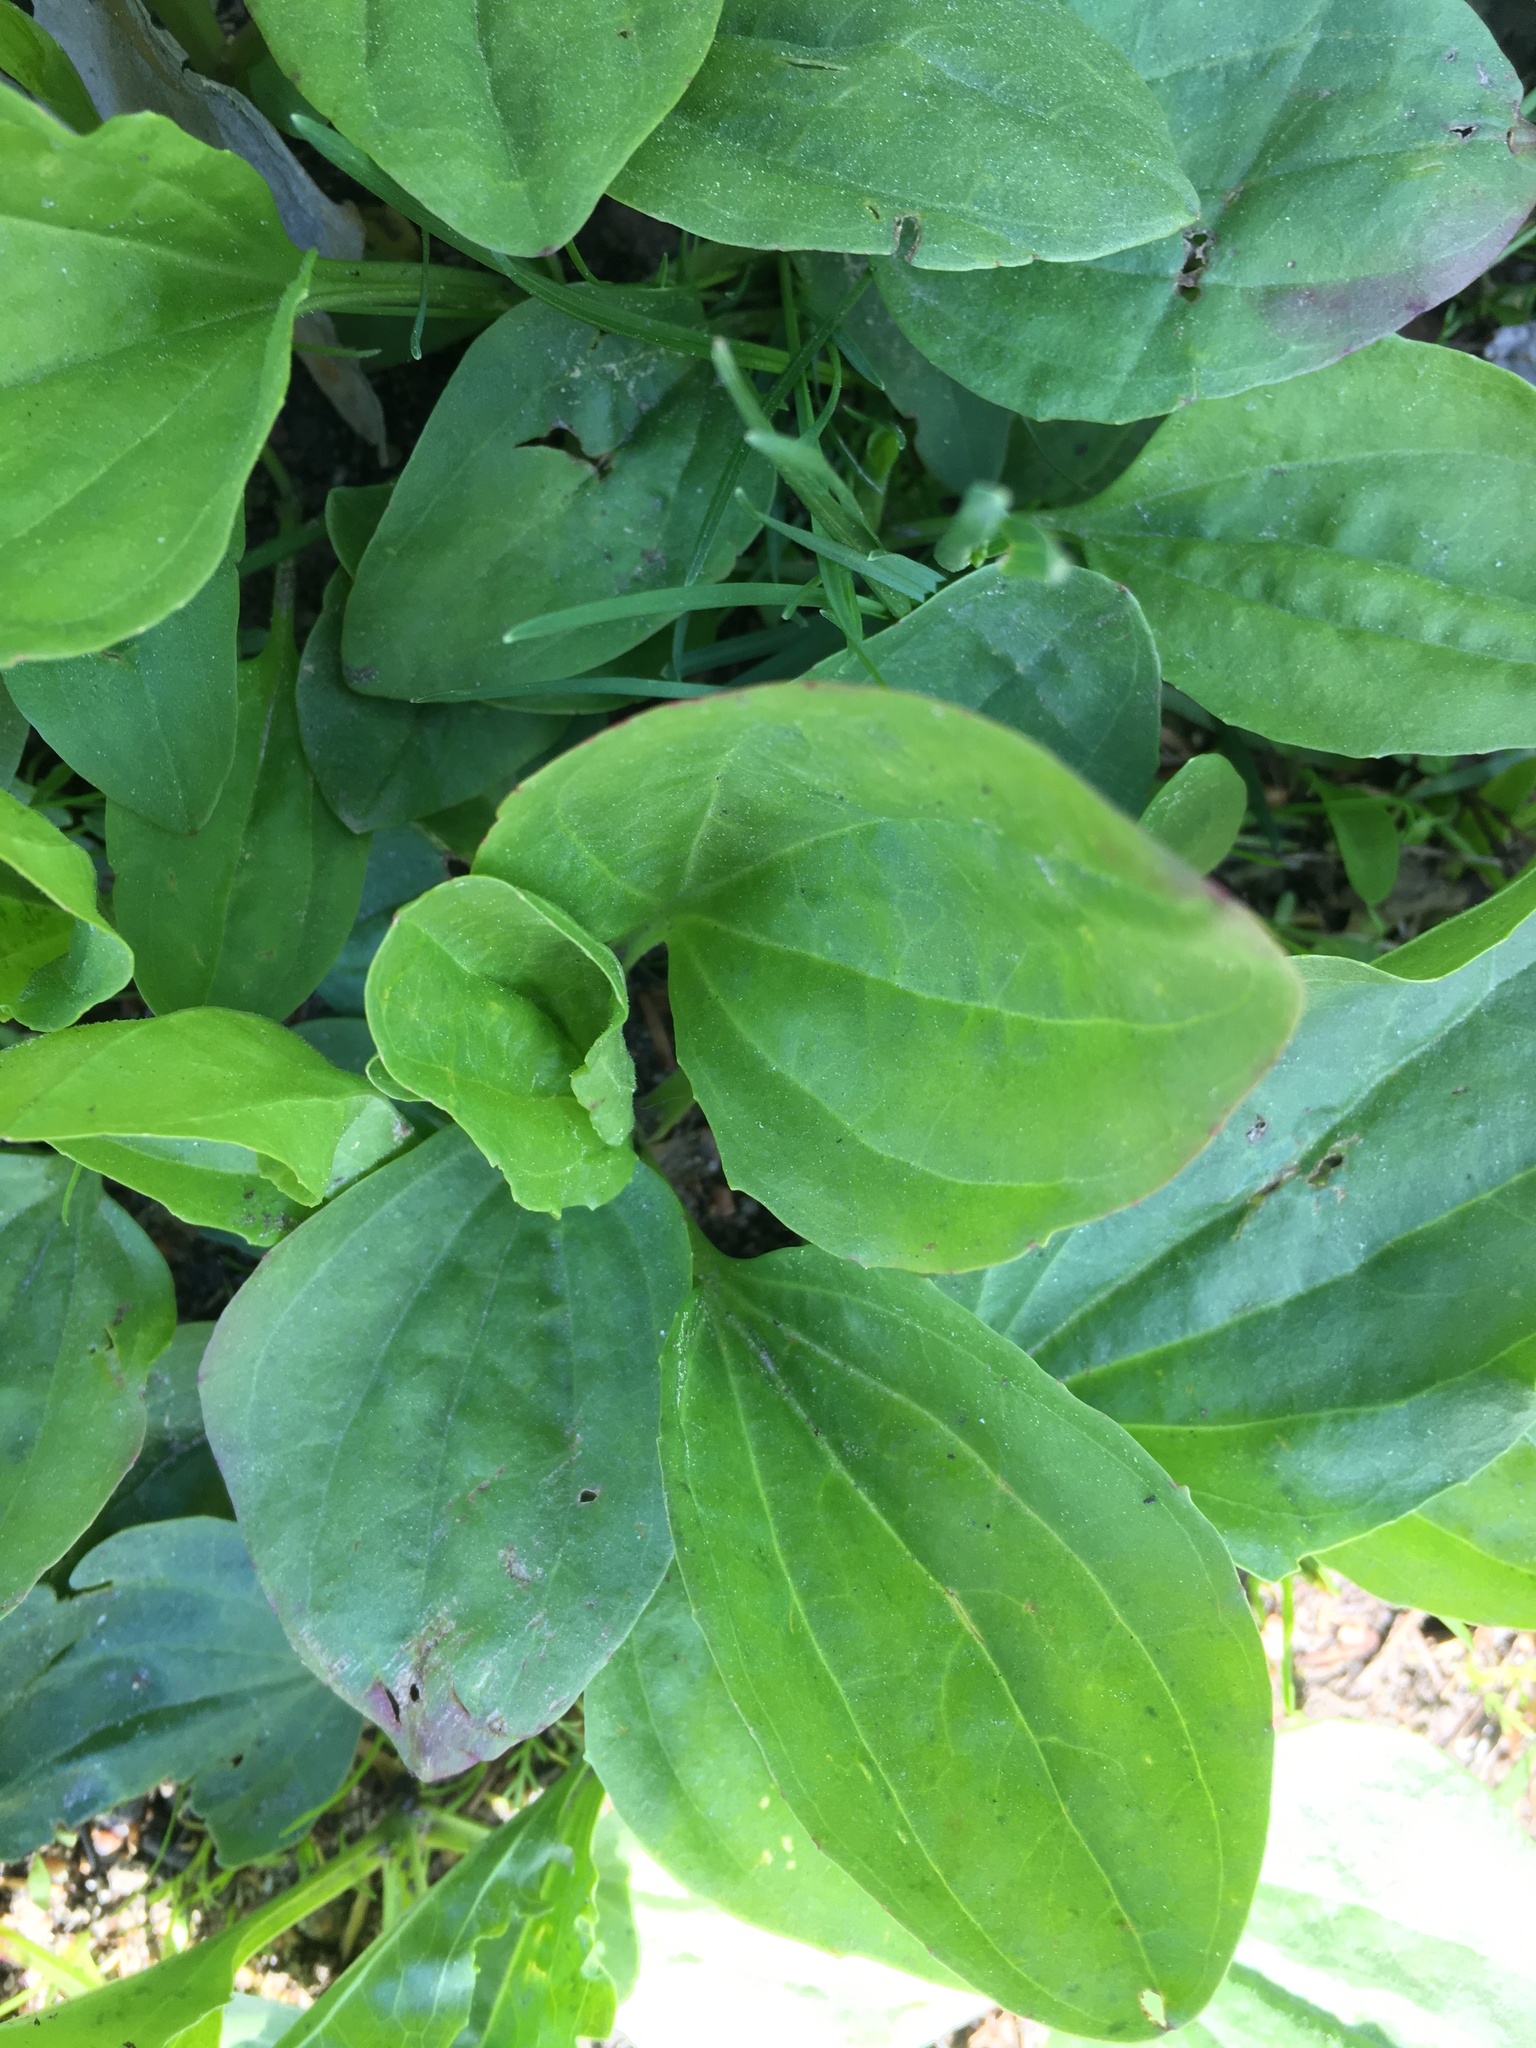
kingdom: Plantae
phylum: Tracheophyta
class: Magnoliopsida
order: Lamiales
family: Plantaginaceae
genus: Plantago
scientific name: Plantago major
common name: Common plantain
